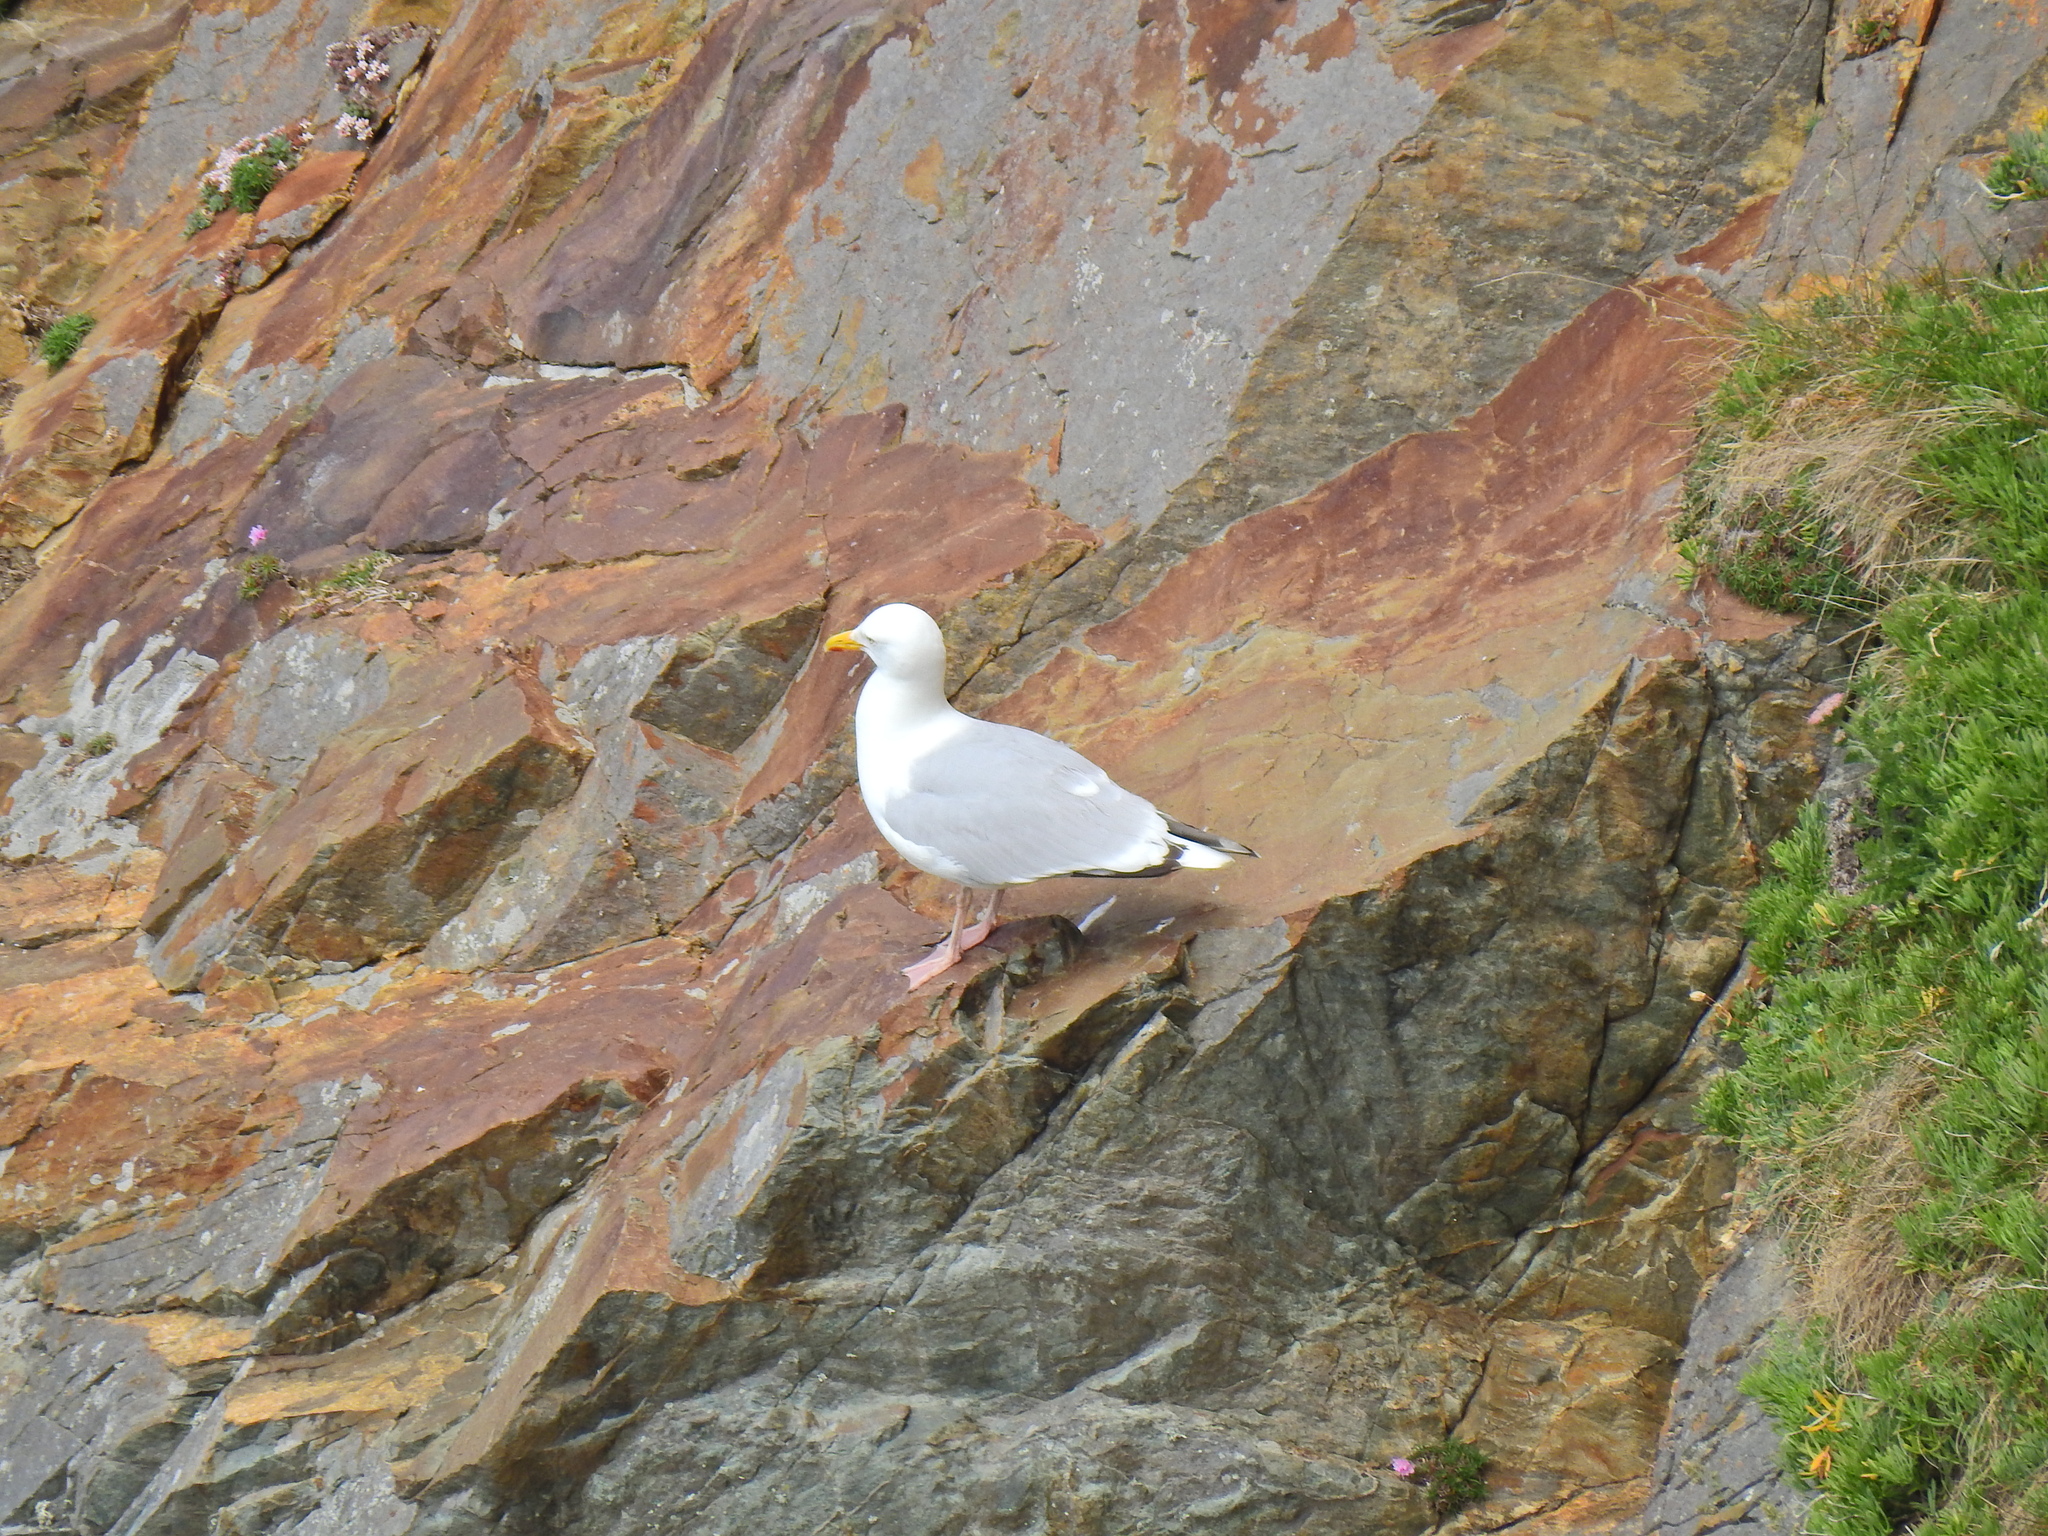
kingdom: Animalia
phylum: Chordata
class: Aves
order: Charadriiformes
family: Laridae
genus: Larus
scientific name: Larus argentatus
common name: Herring gull
